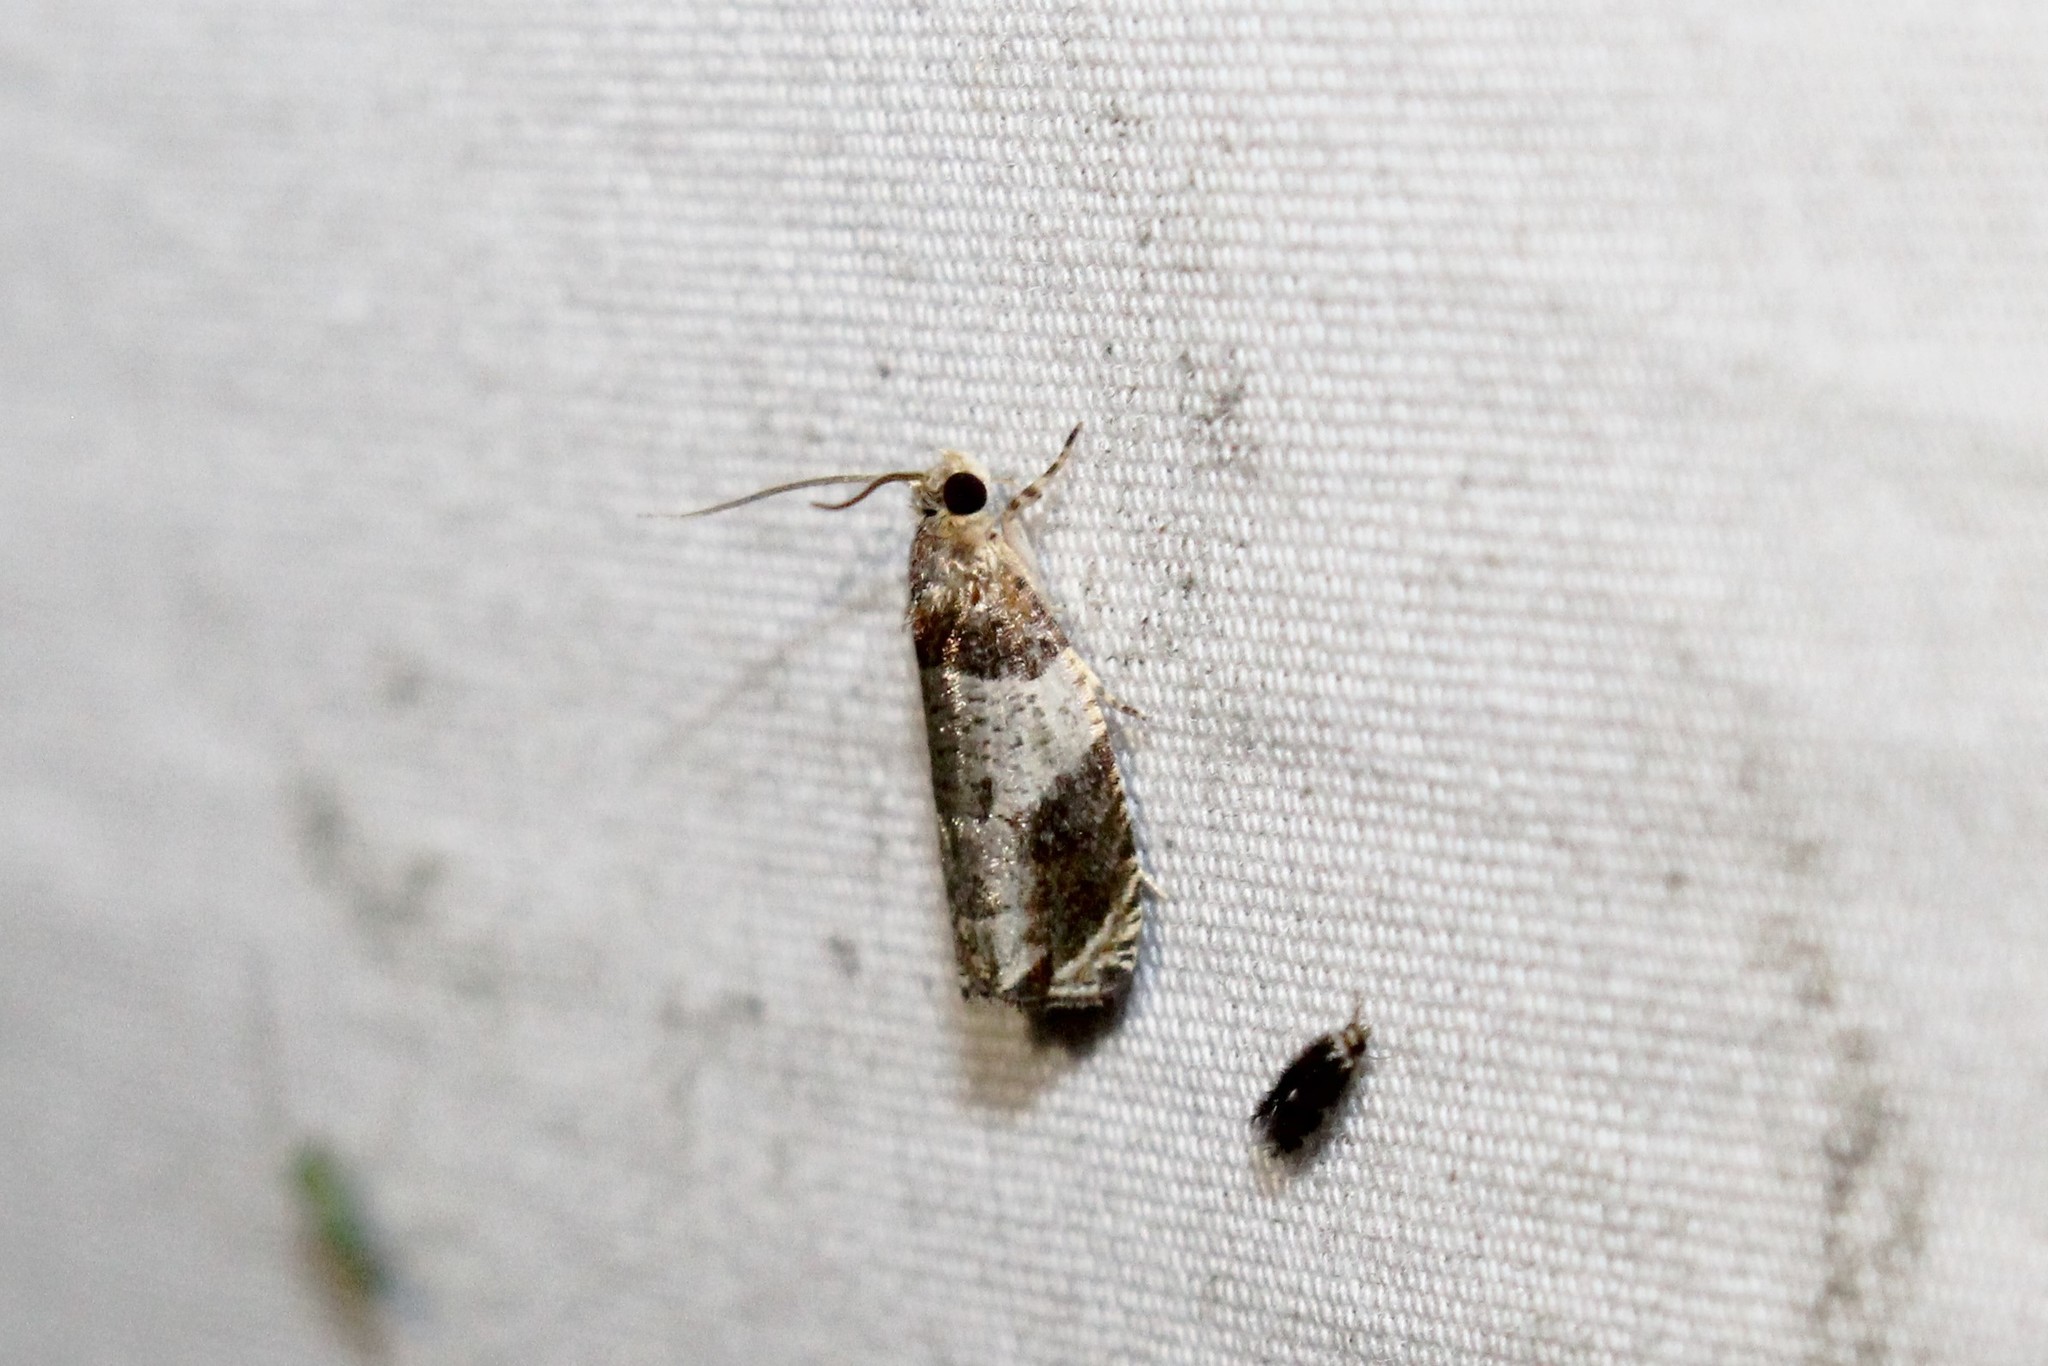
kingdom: Animalia
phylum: Arthropoda
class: Insecta
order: Lepidoptera
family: Tortricidae
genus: Olethreutes
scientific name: Olethreutes ferriferana
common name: Hydrangea leaftier moth
